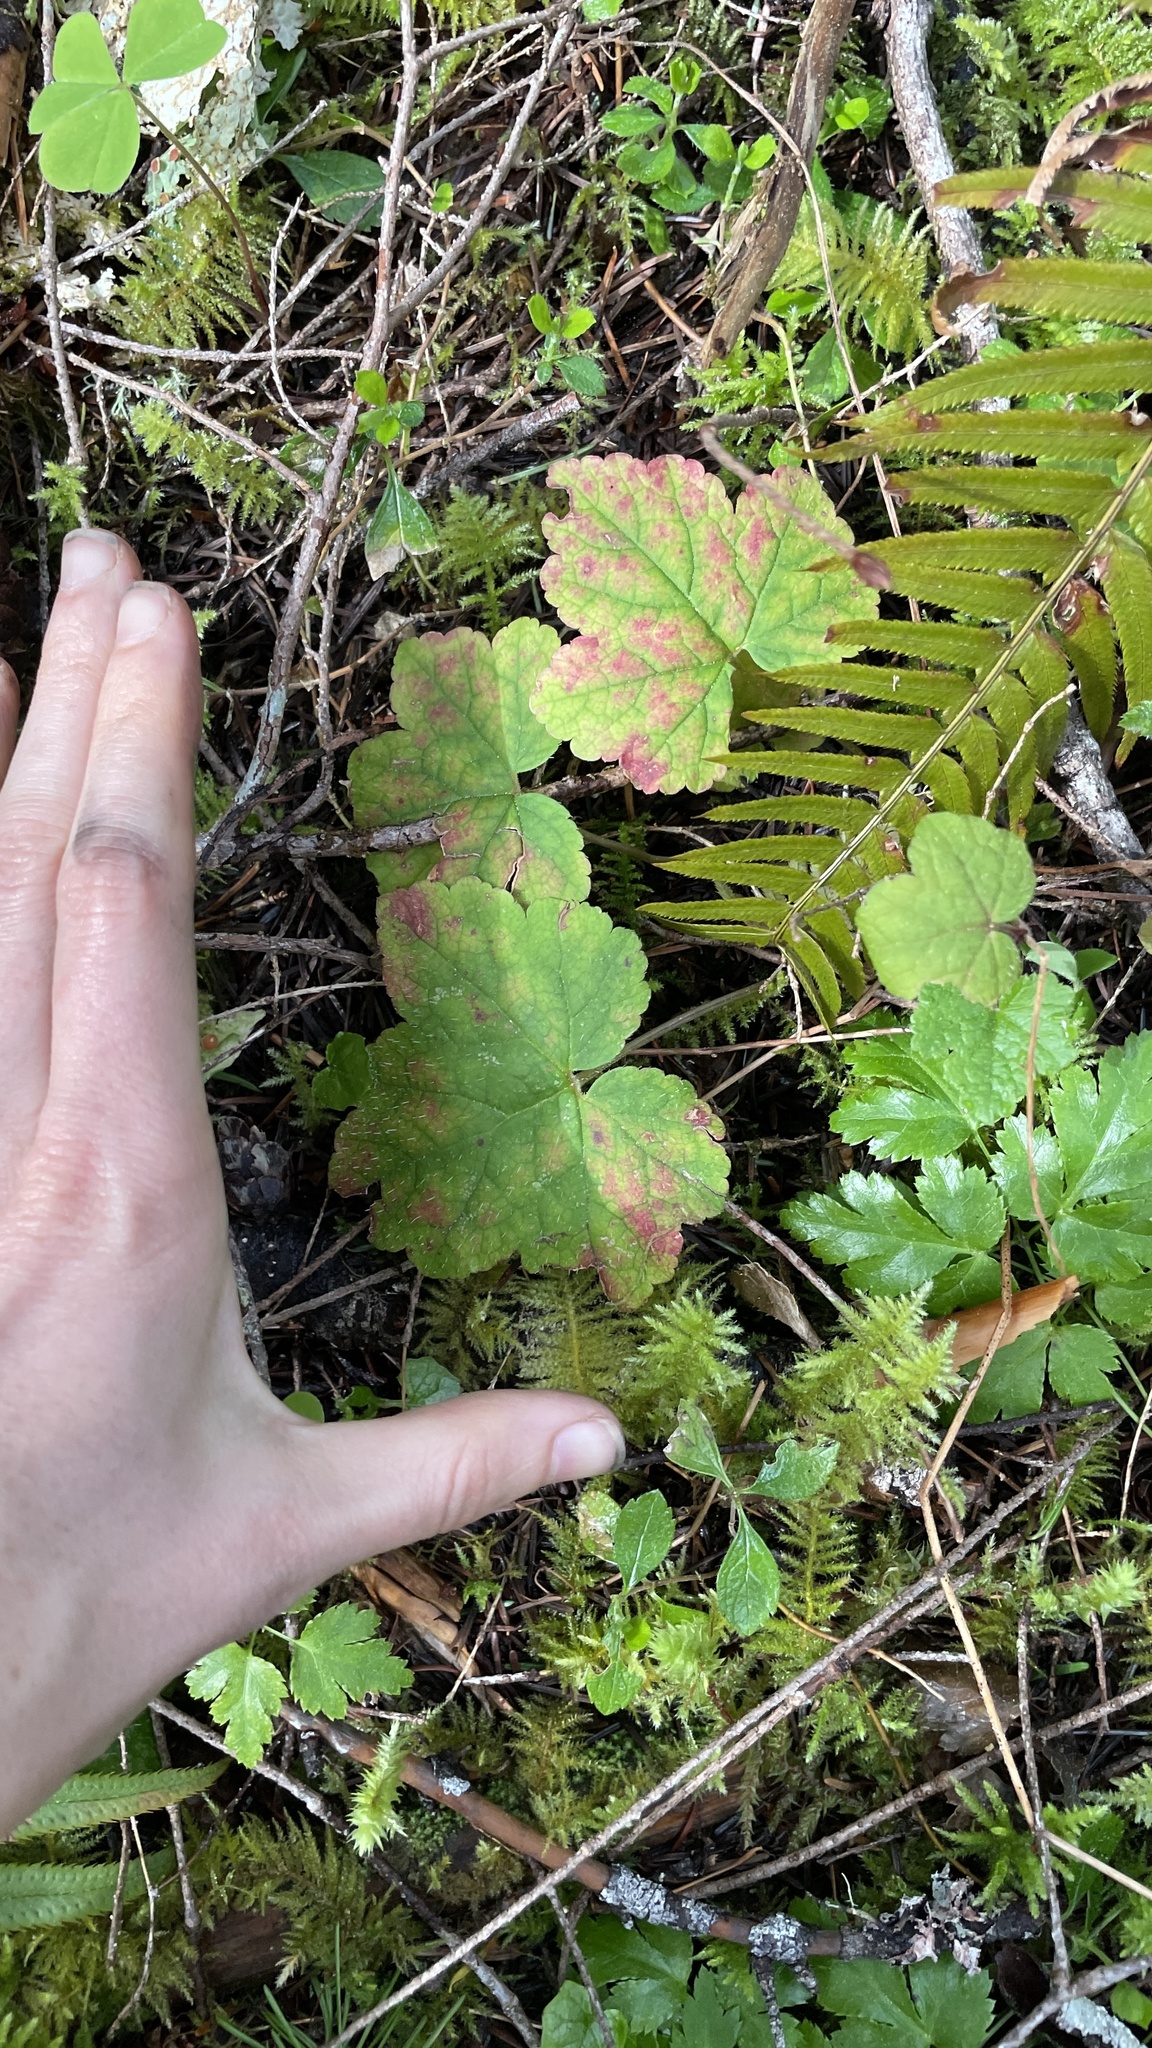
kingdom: Plantae
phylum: Tracheophyta
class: Magnoliopsida
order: Saxifragales
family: Saxifragaceae
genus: Tellima
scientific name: Tellima grandiflora
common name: Fringecups
